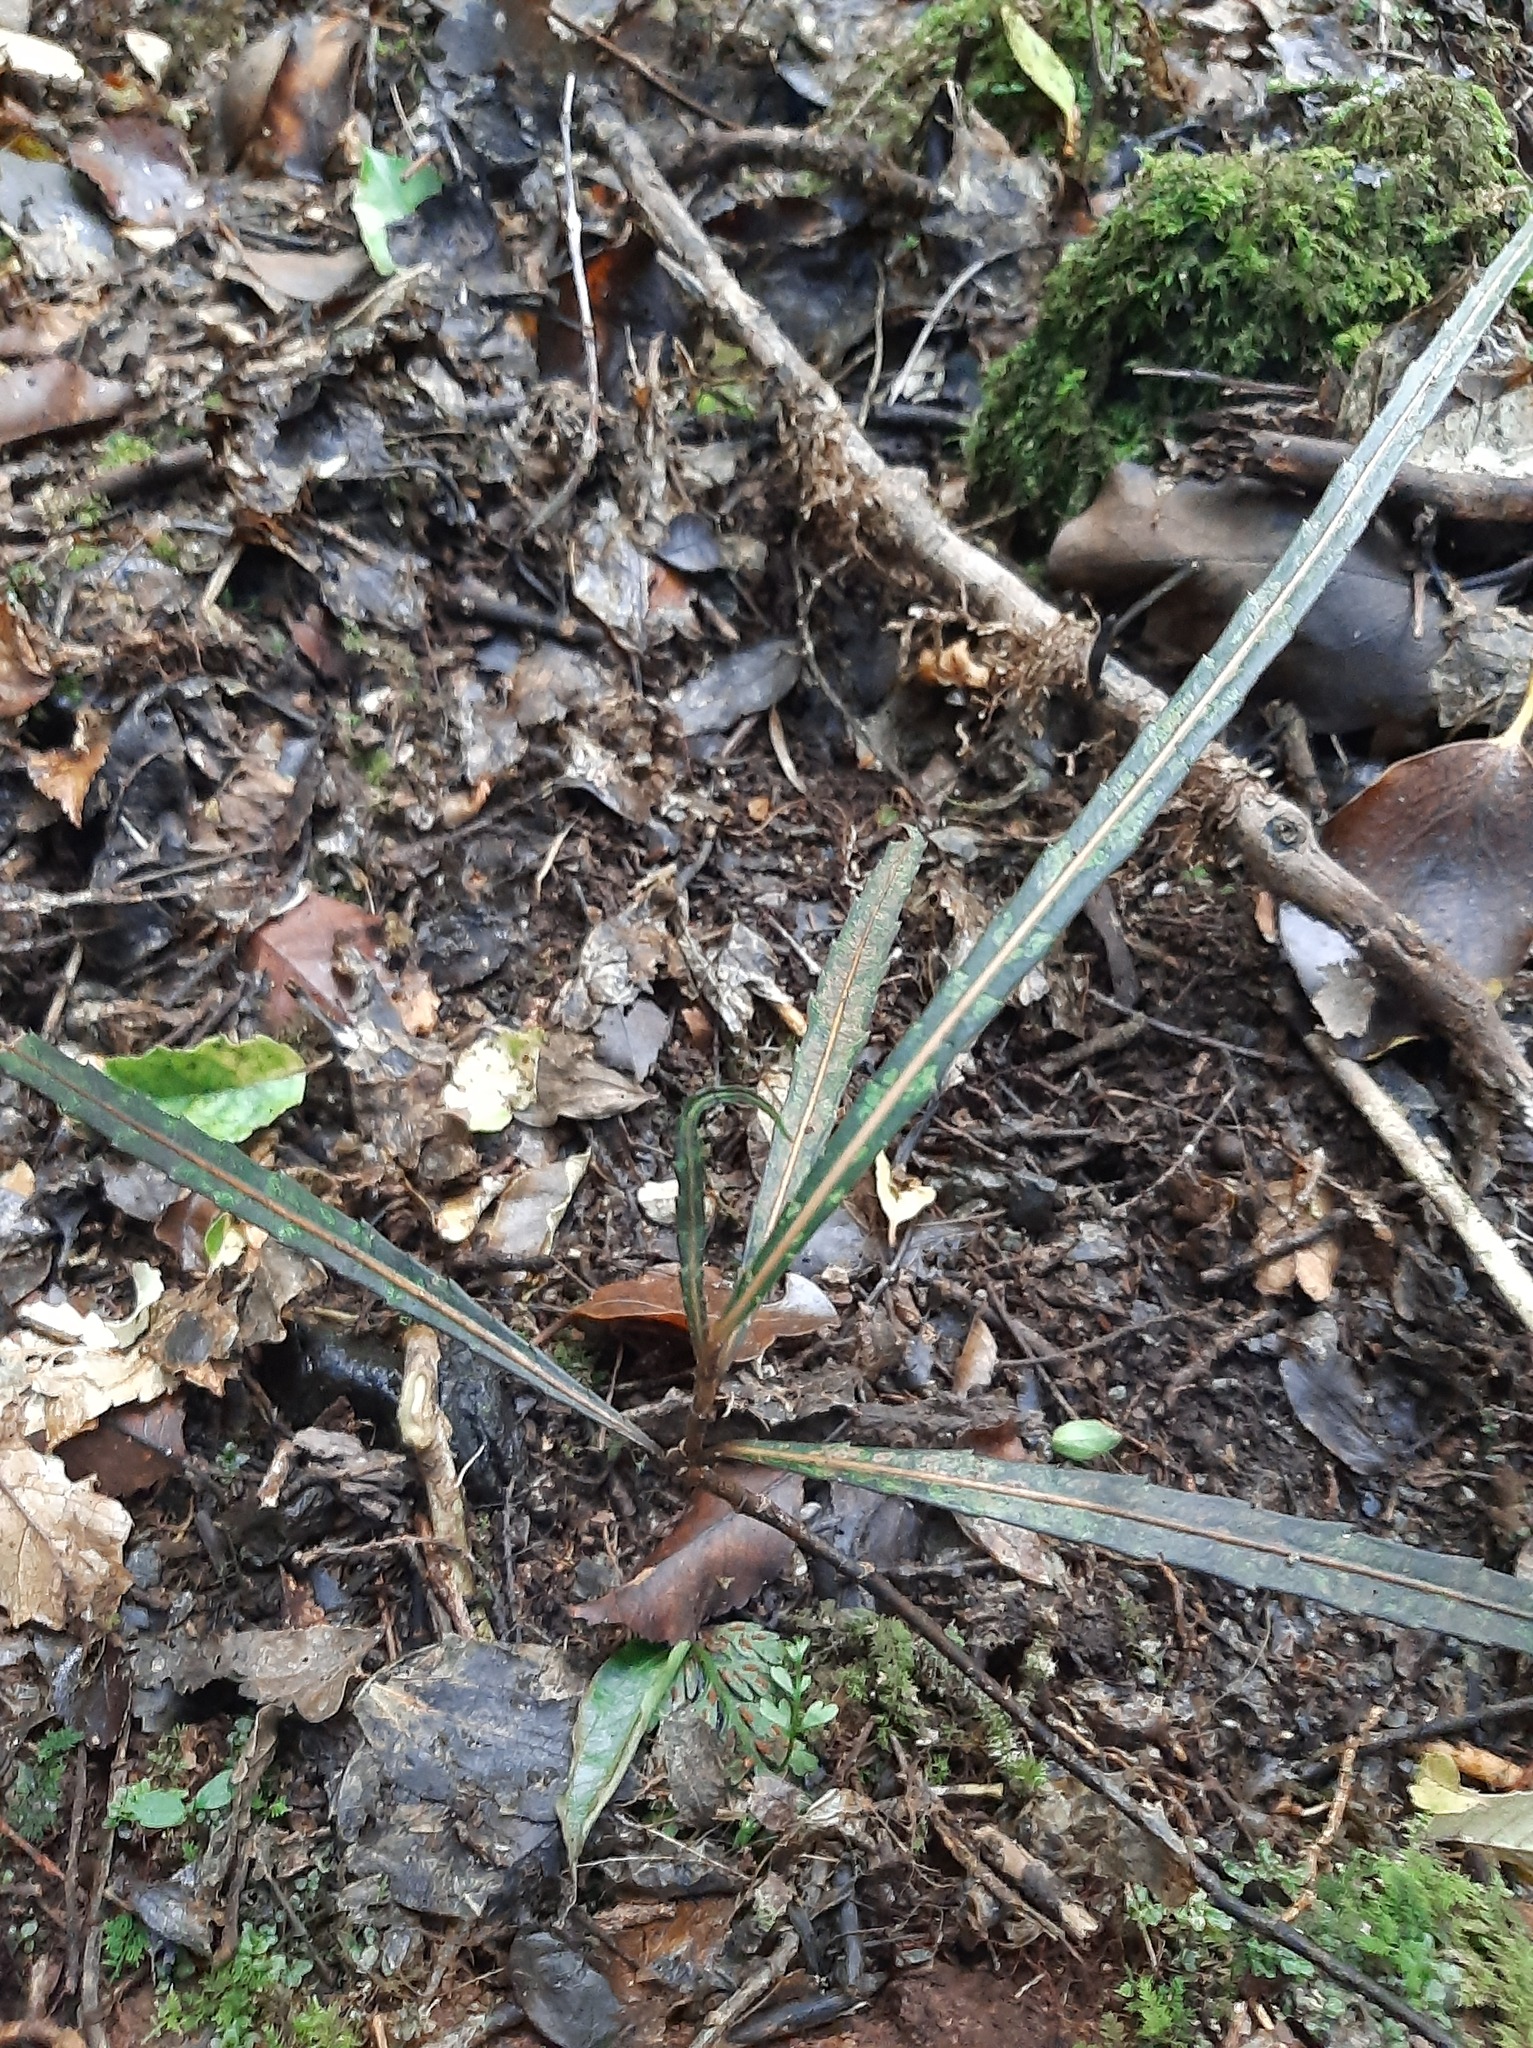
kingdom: Plantae
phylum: Tracheophyta
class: Magnoliopsida
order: Apiales
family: Araliaceae
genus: Pseudopanax
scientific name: Pseudopanax crassifolius
